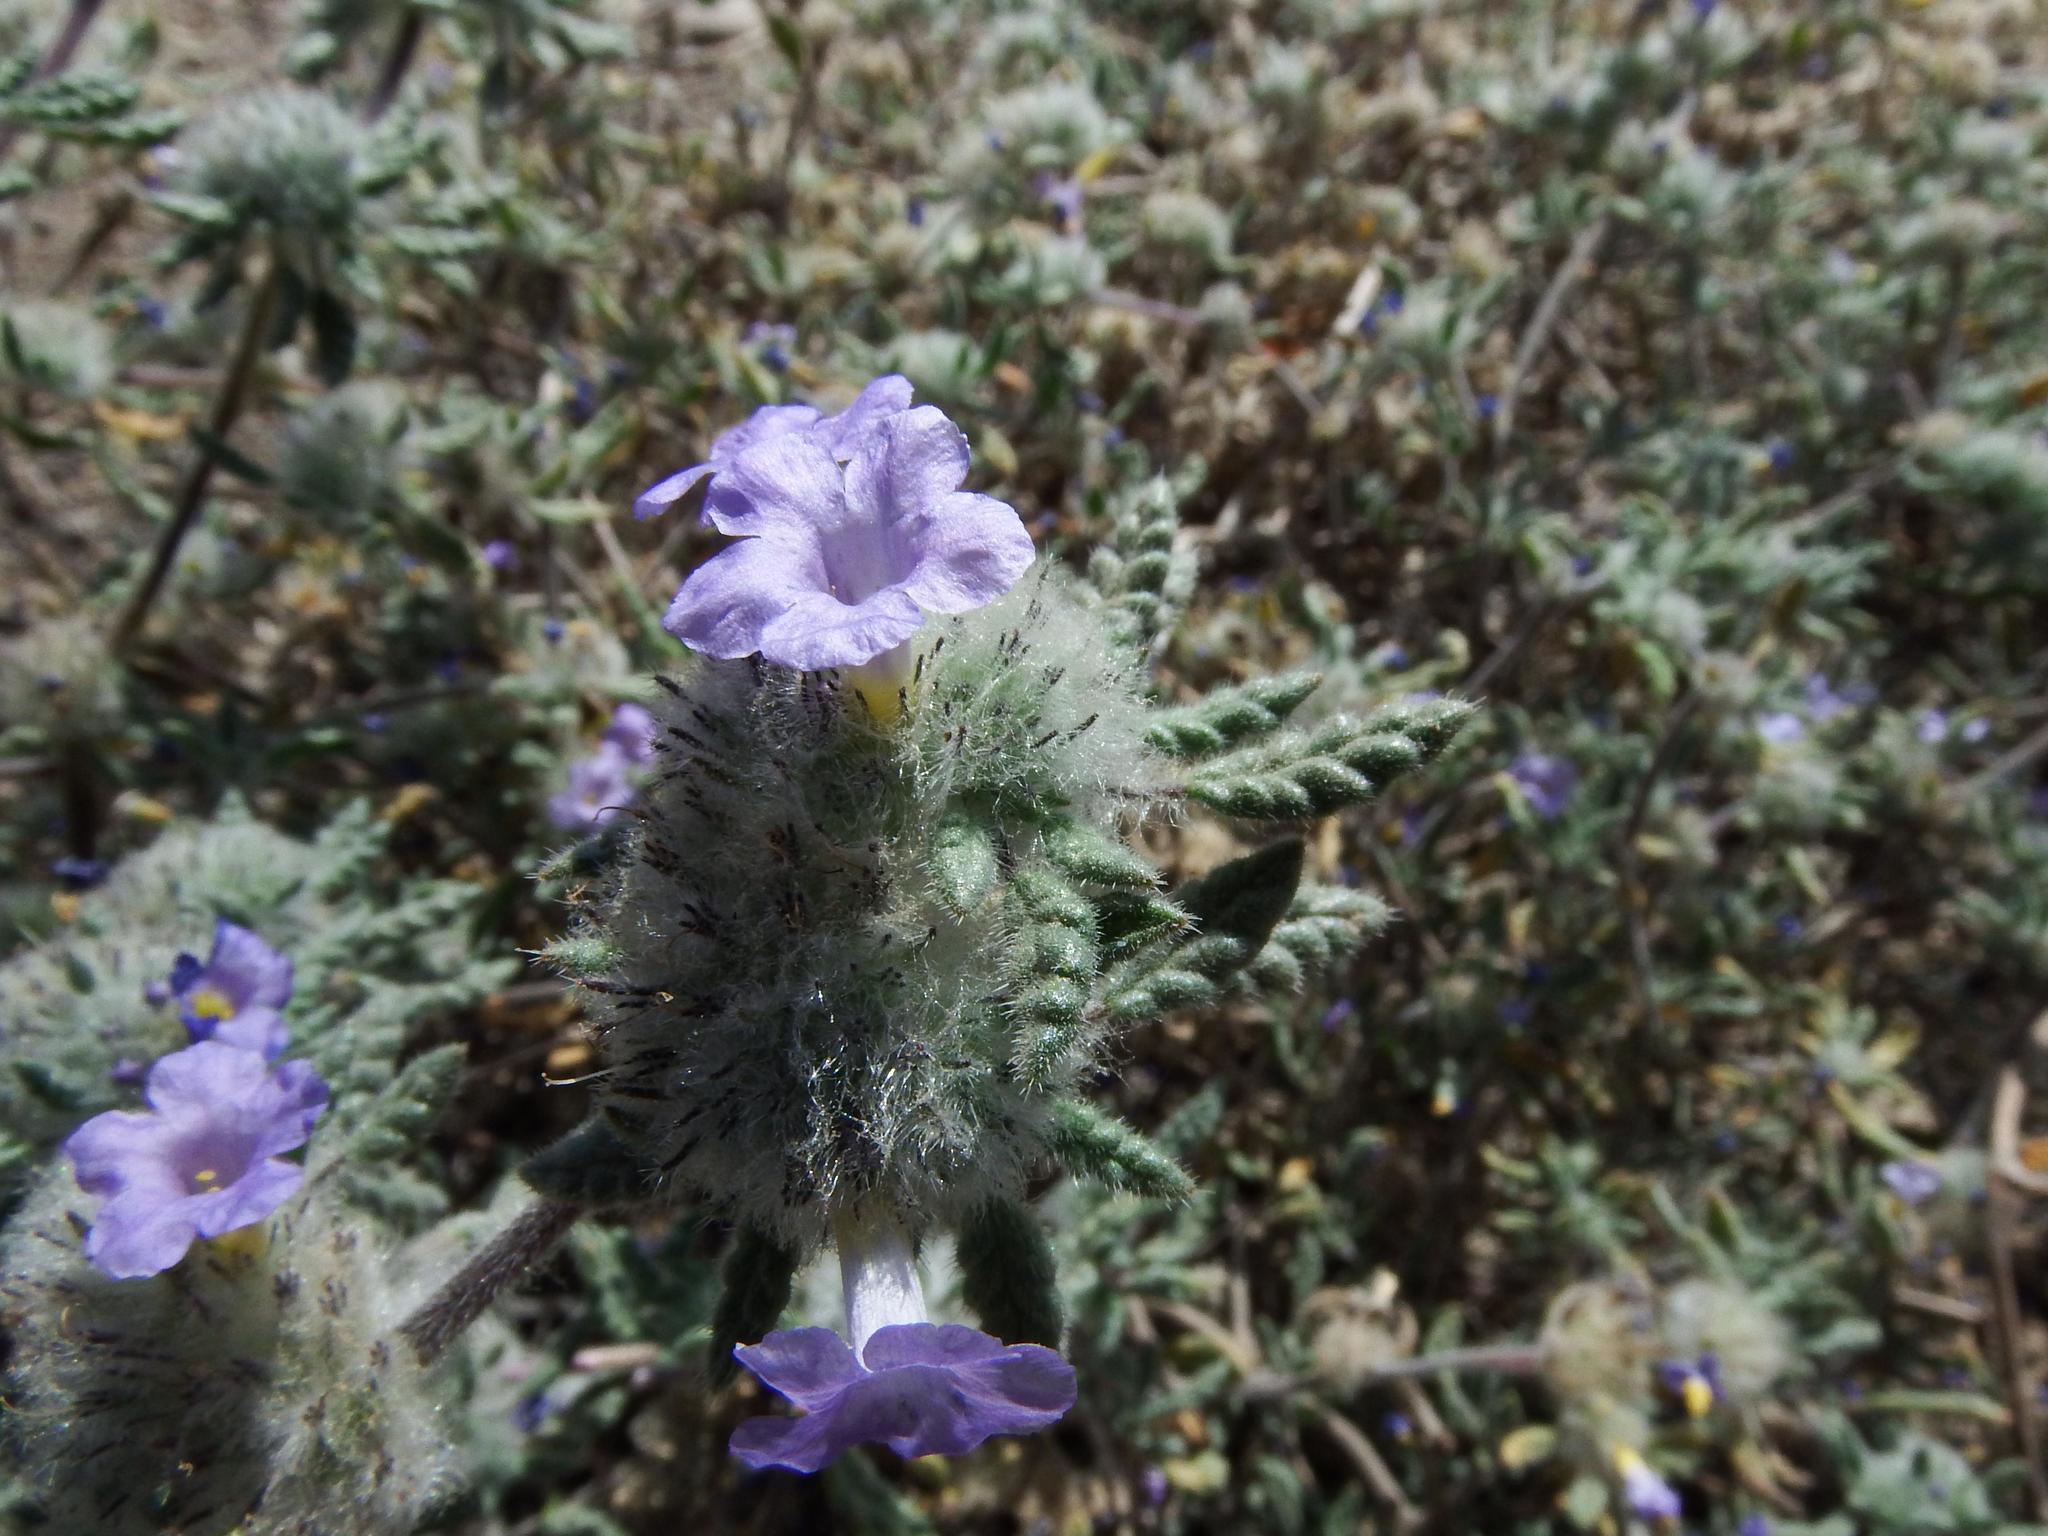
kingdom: Plantae
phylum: Tracheophyta
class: Magnoliopsida
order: Boraginales
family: Ehretiaceae
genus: Tiquilia
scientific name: Tiquilia elongata
